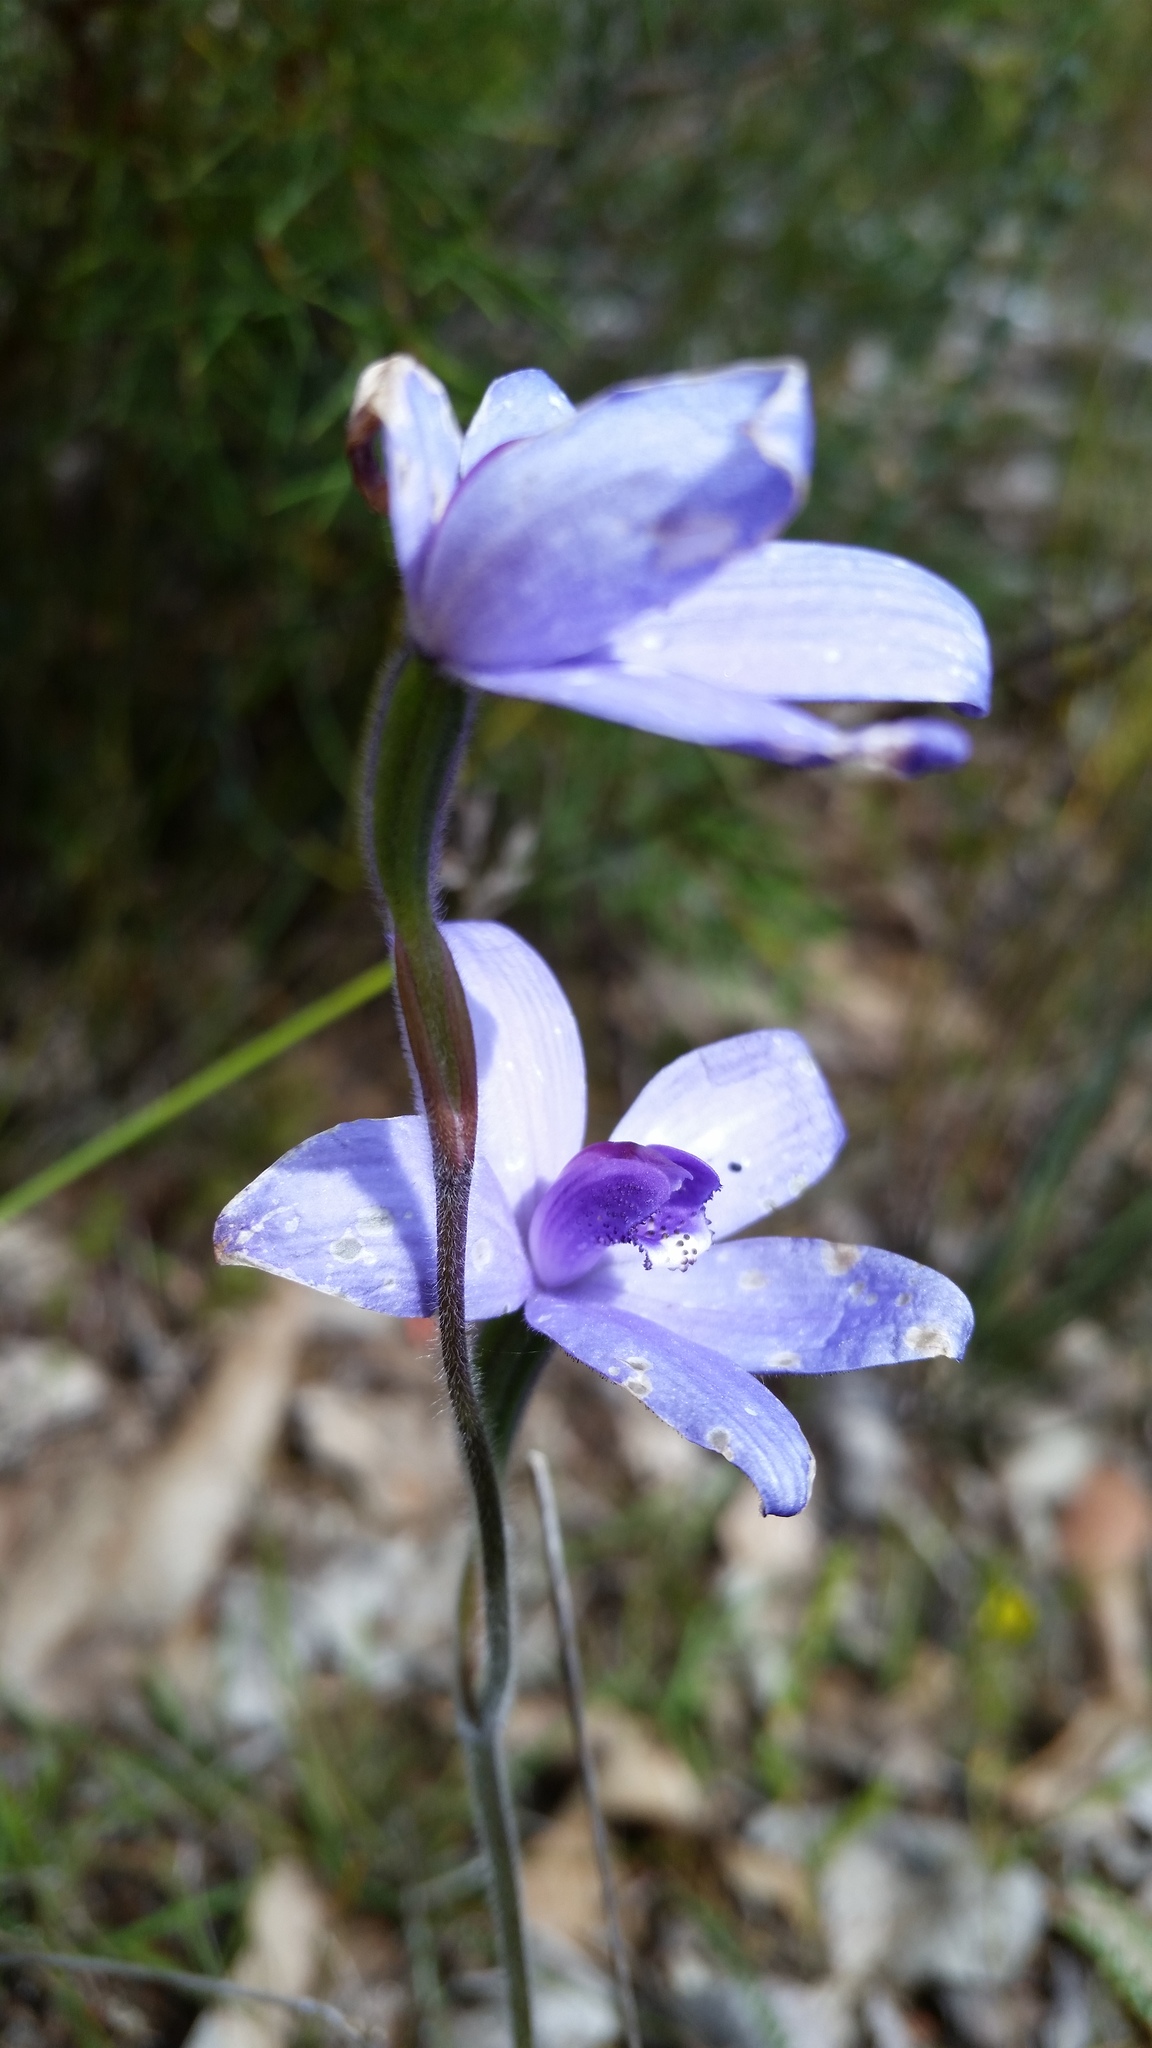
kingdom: Plantae
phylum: Tracheophyta
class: Liliopsida
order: Asparagales
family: Orchidaceae
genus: Caladenia
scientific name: Caladenia sericea
